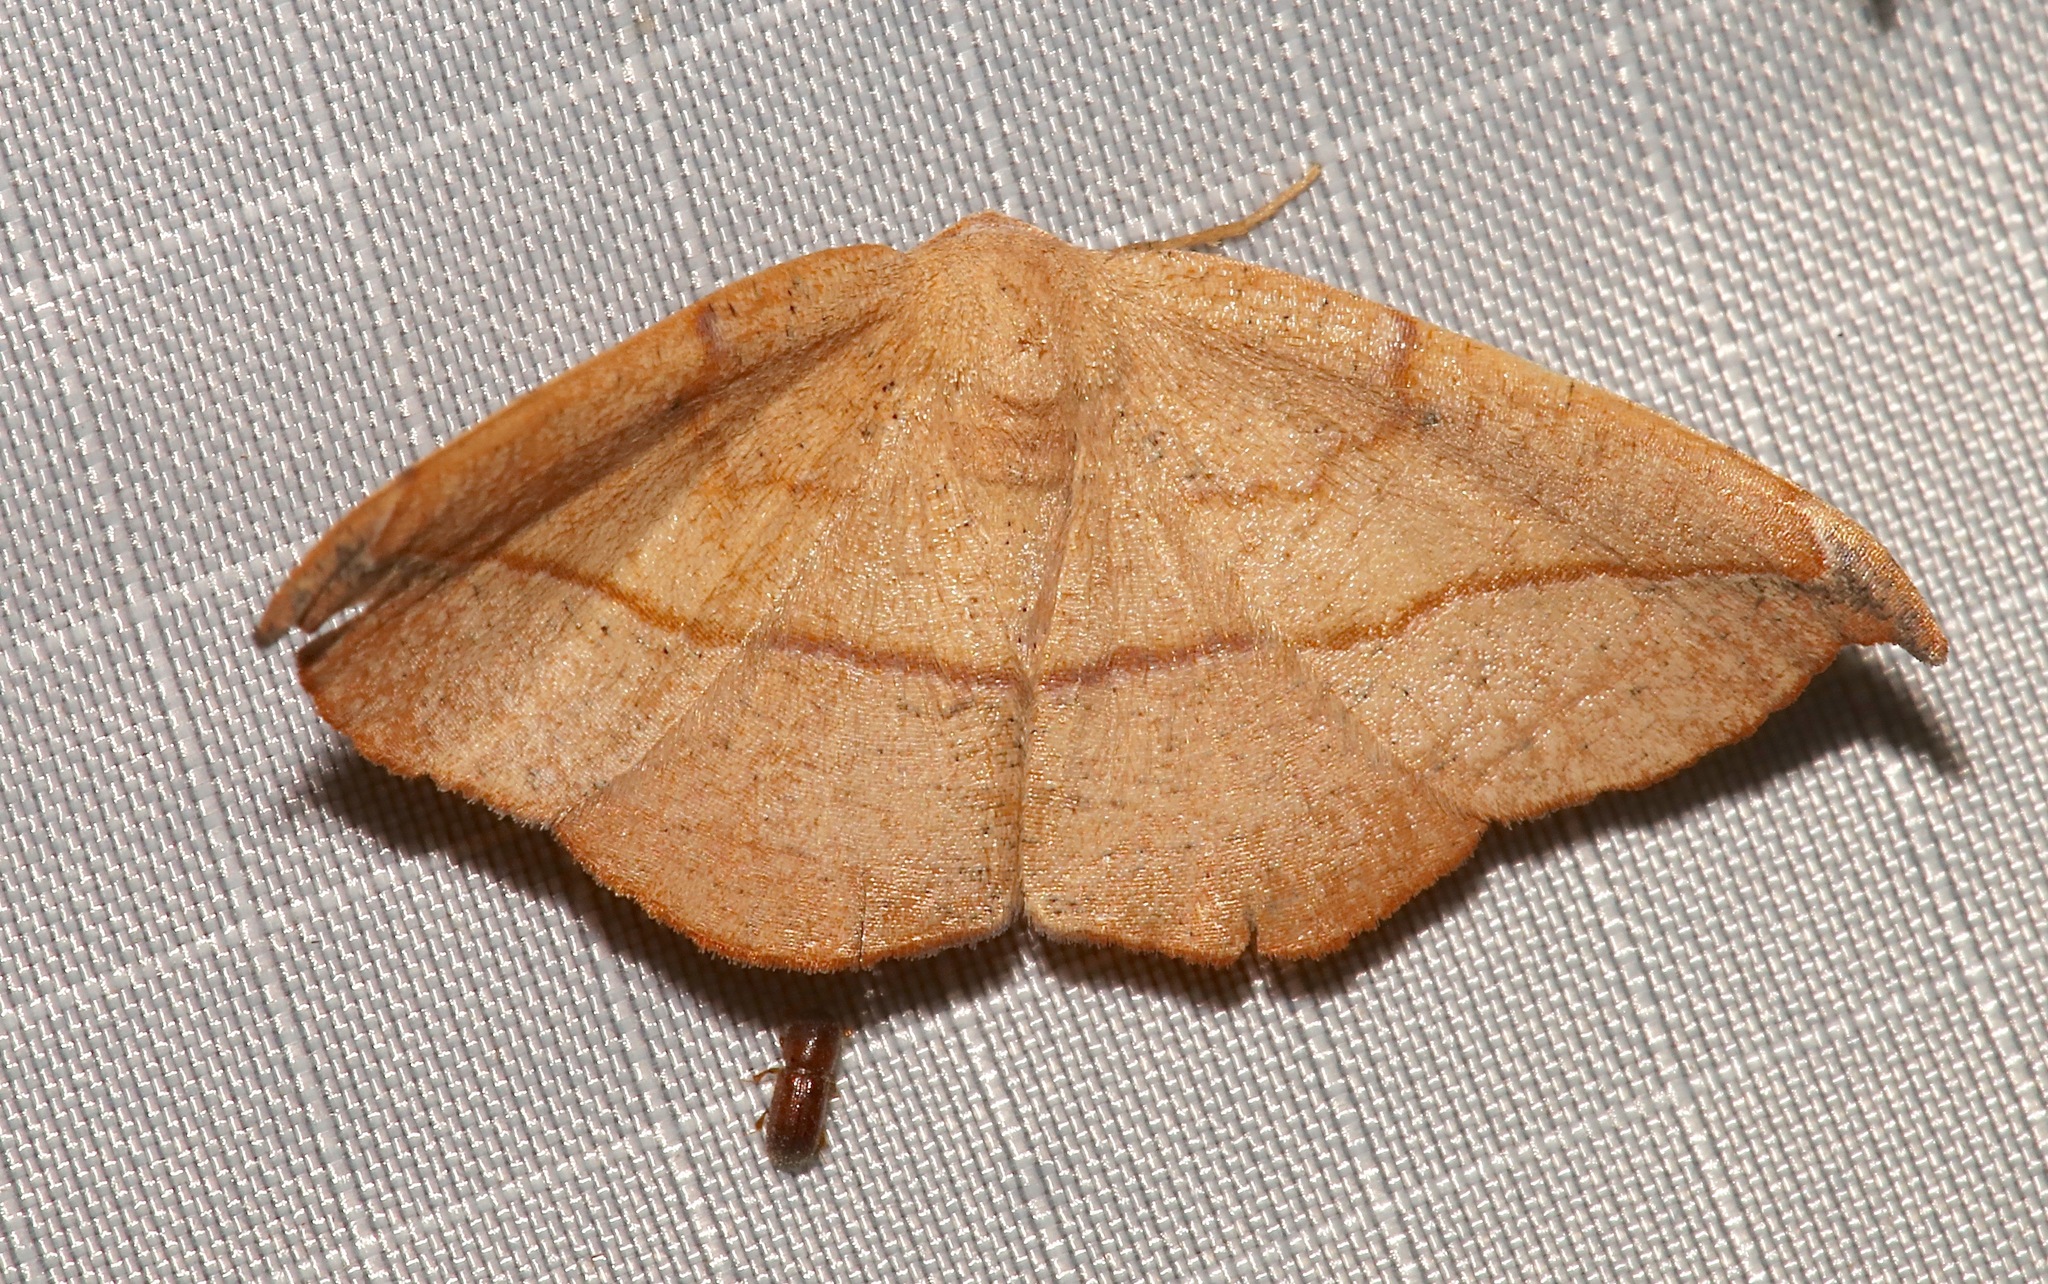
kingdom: Animalia
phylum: Arthropoda
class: Insecta
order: Lepidoptera
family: Geometridae
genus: Patalene
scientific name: Patalene olyzonaria
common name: Juniper geometer moth
